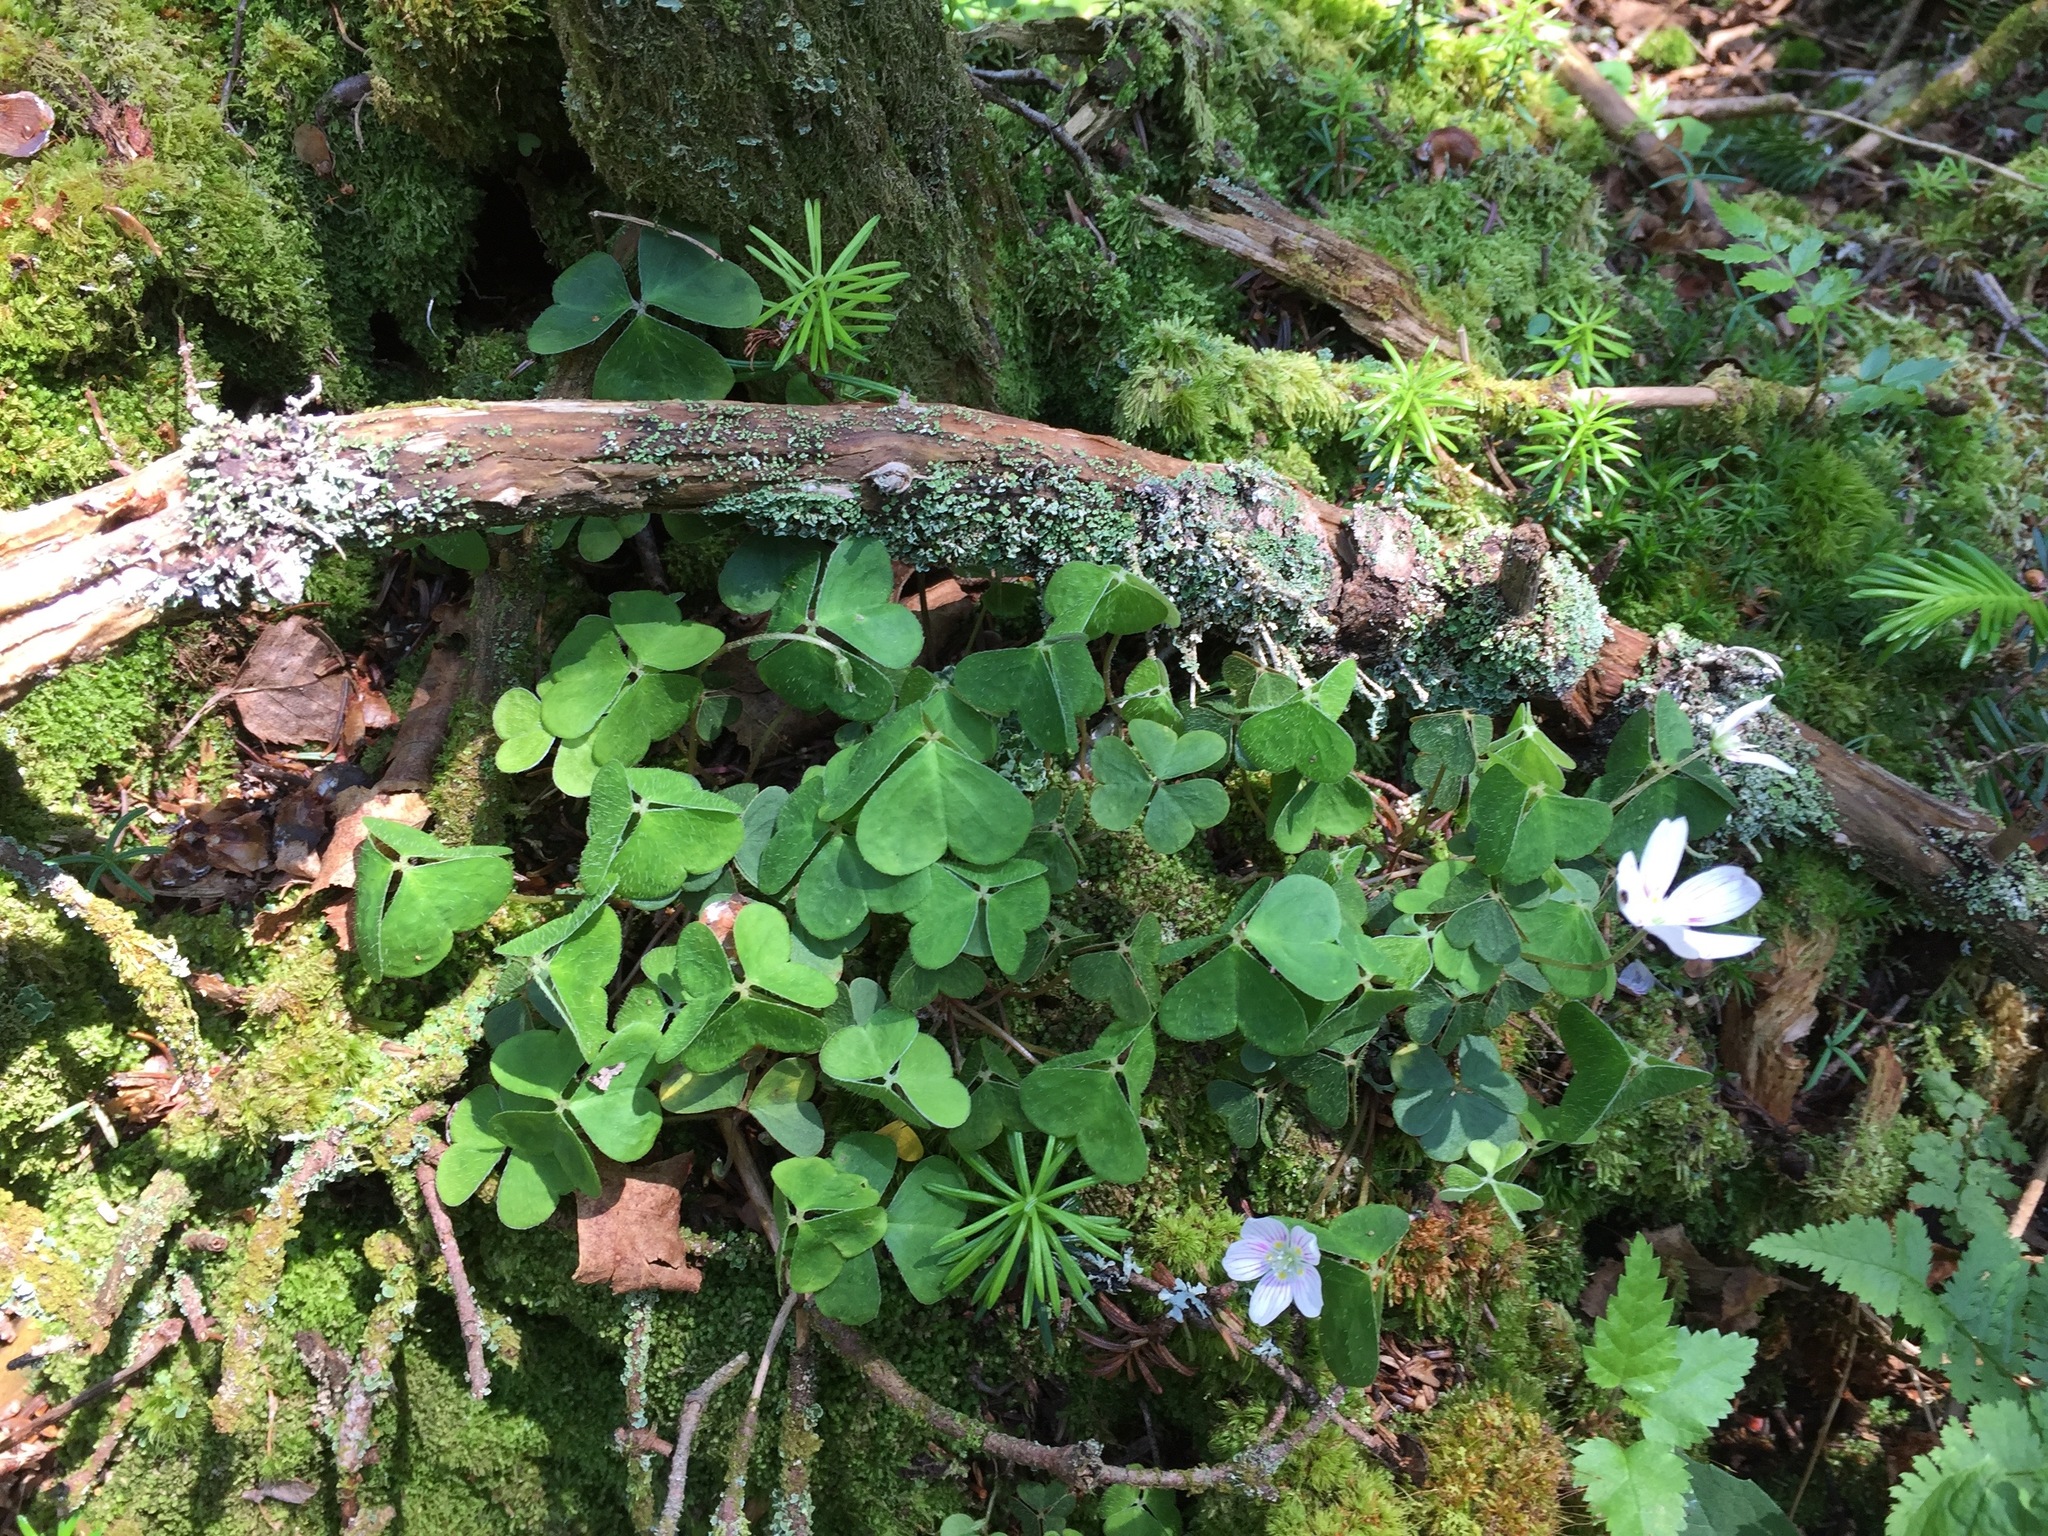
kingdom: Plantae
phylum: Tracheophyta
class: Magnoliopsida
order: Oxalidales
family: Oxalidaceae
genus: Oxalis
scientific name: Oxalis montana
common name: American wood-sorrel
